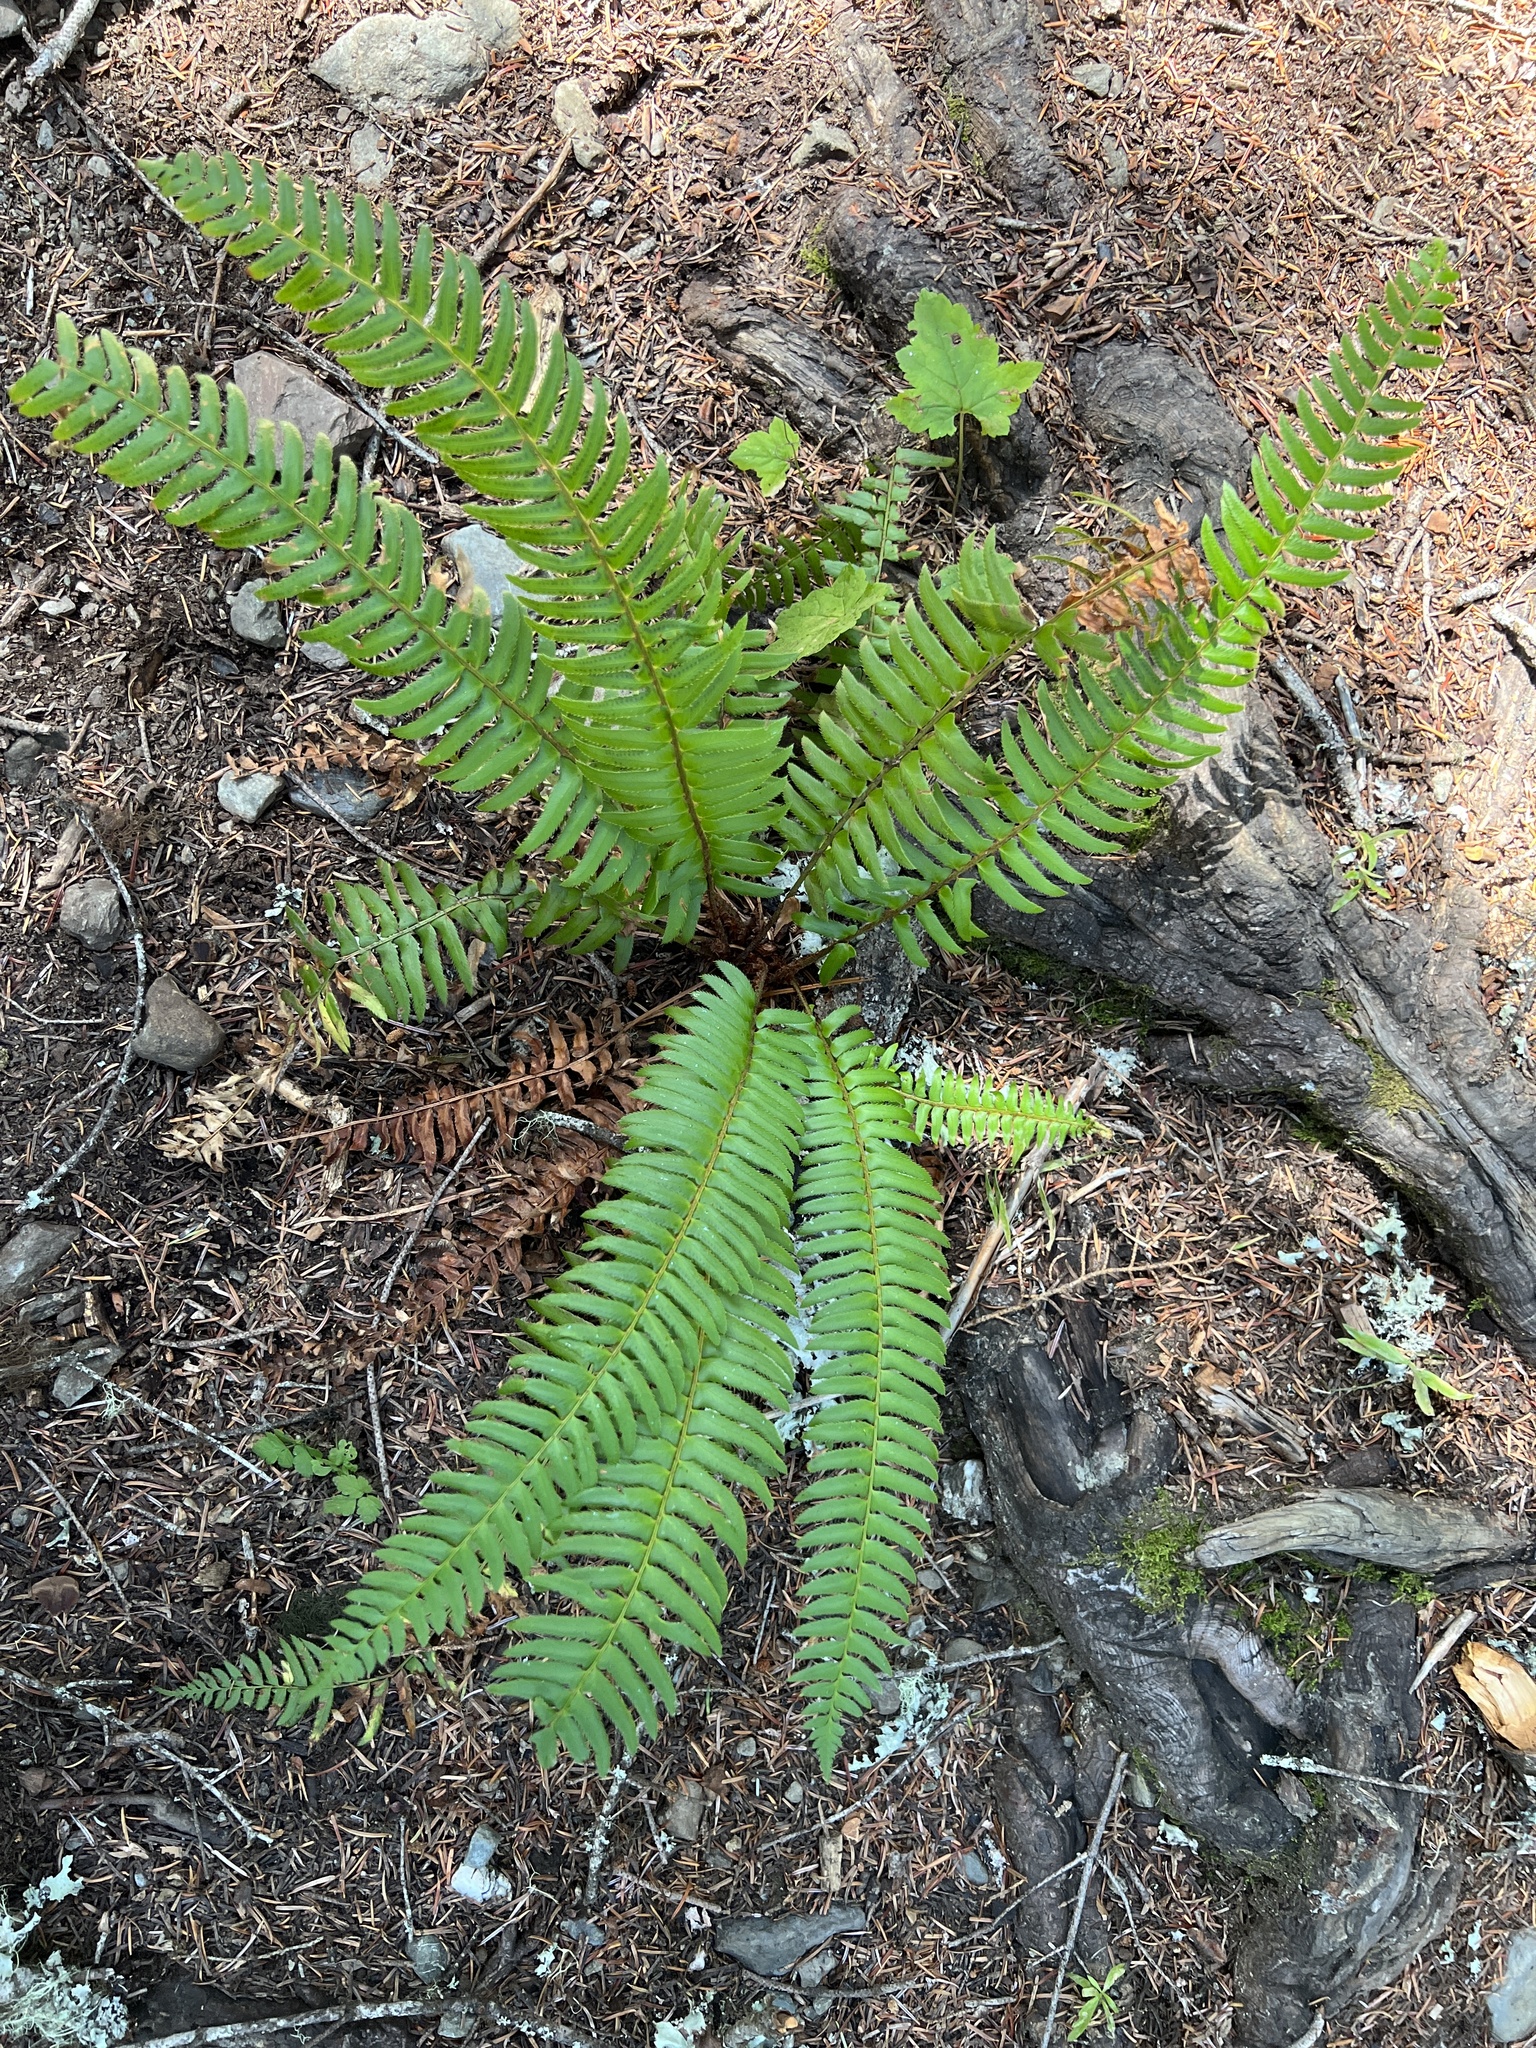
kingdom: Plantae
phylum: Tracheophyta
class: Polypodiopsida
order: Polypodiales
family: Dryopteridaceae
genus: Polystichum
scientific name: Polystichum munitum
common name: Western sword-fern
